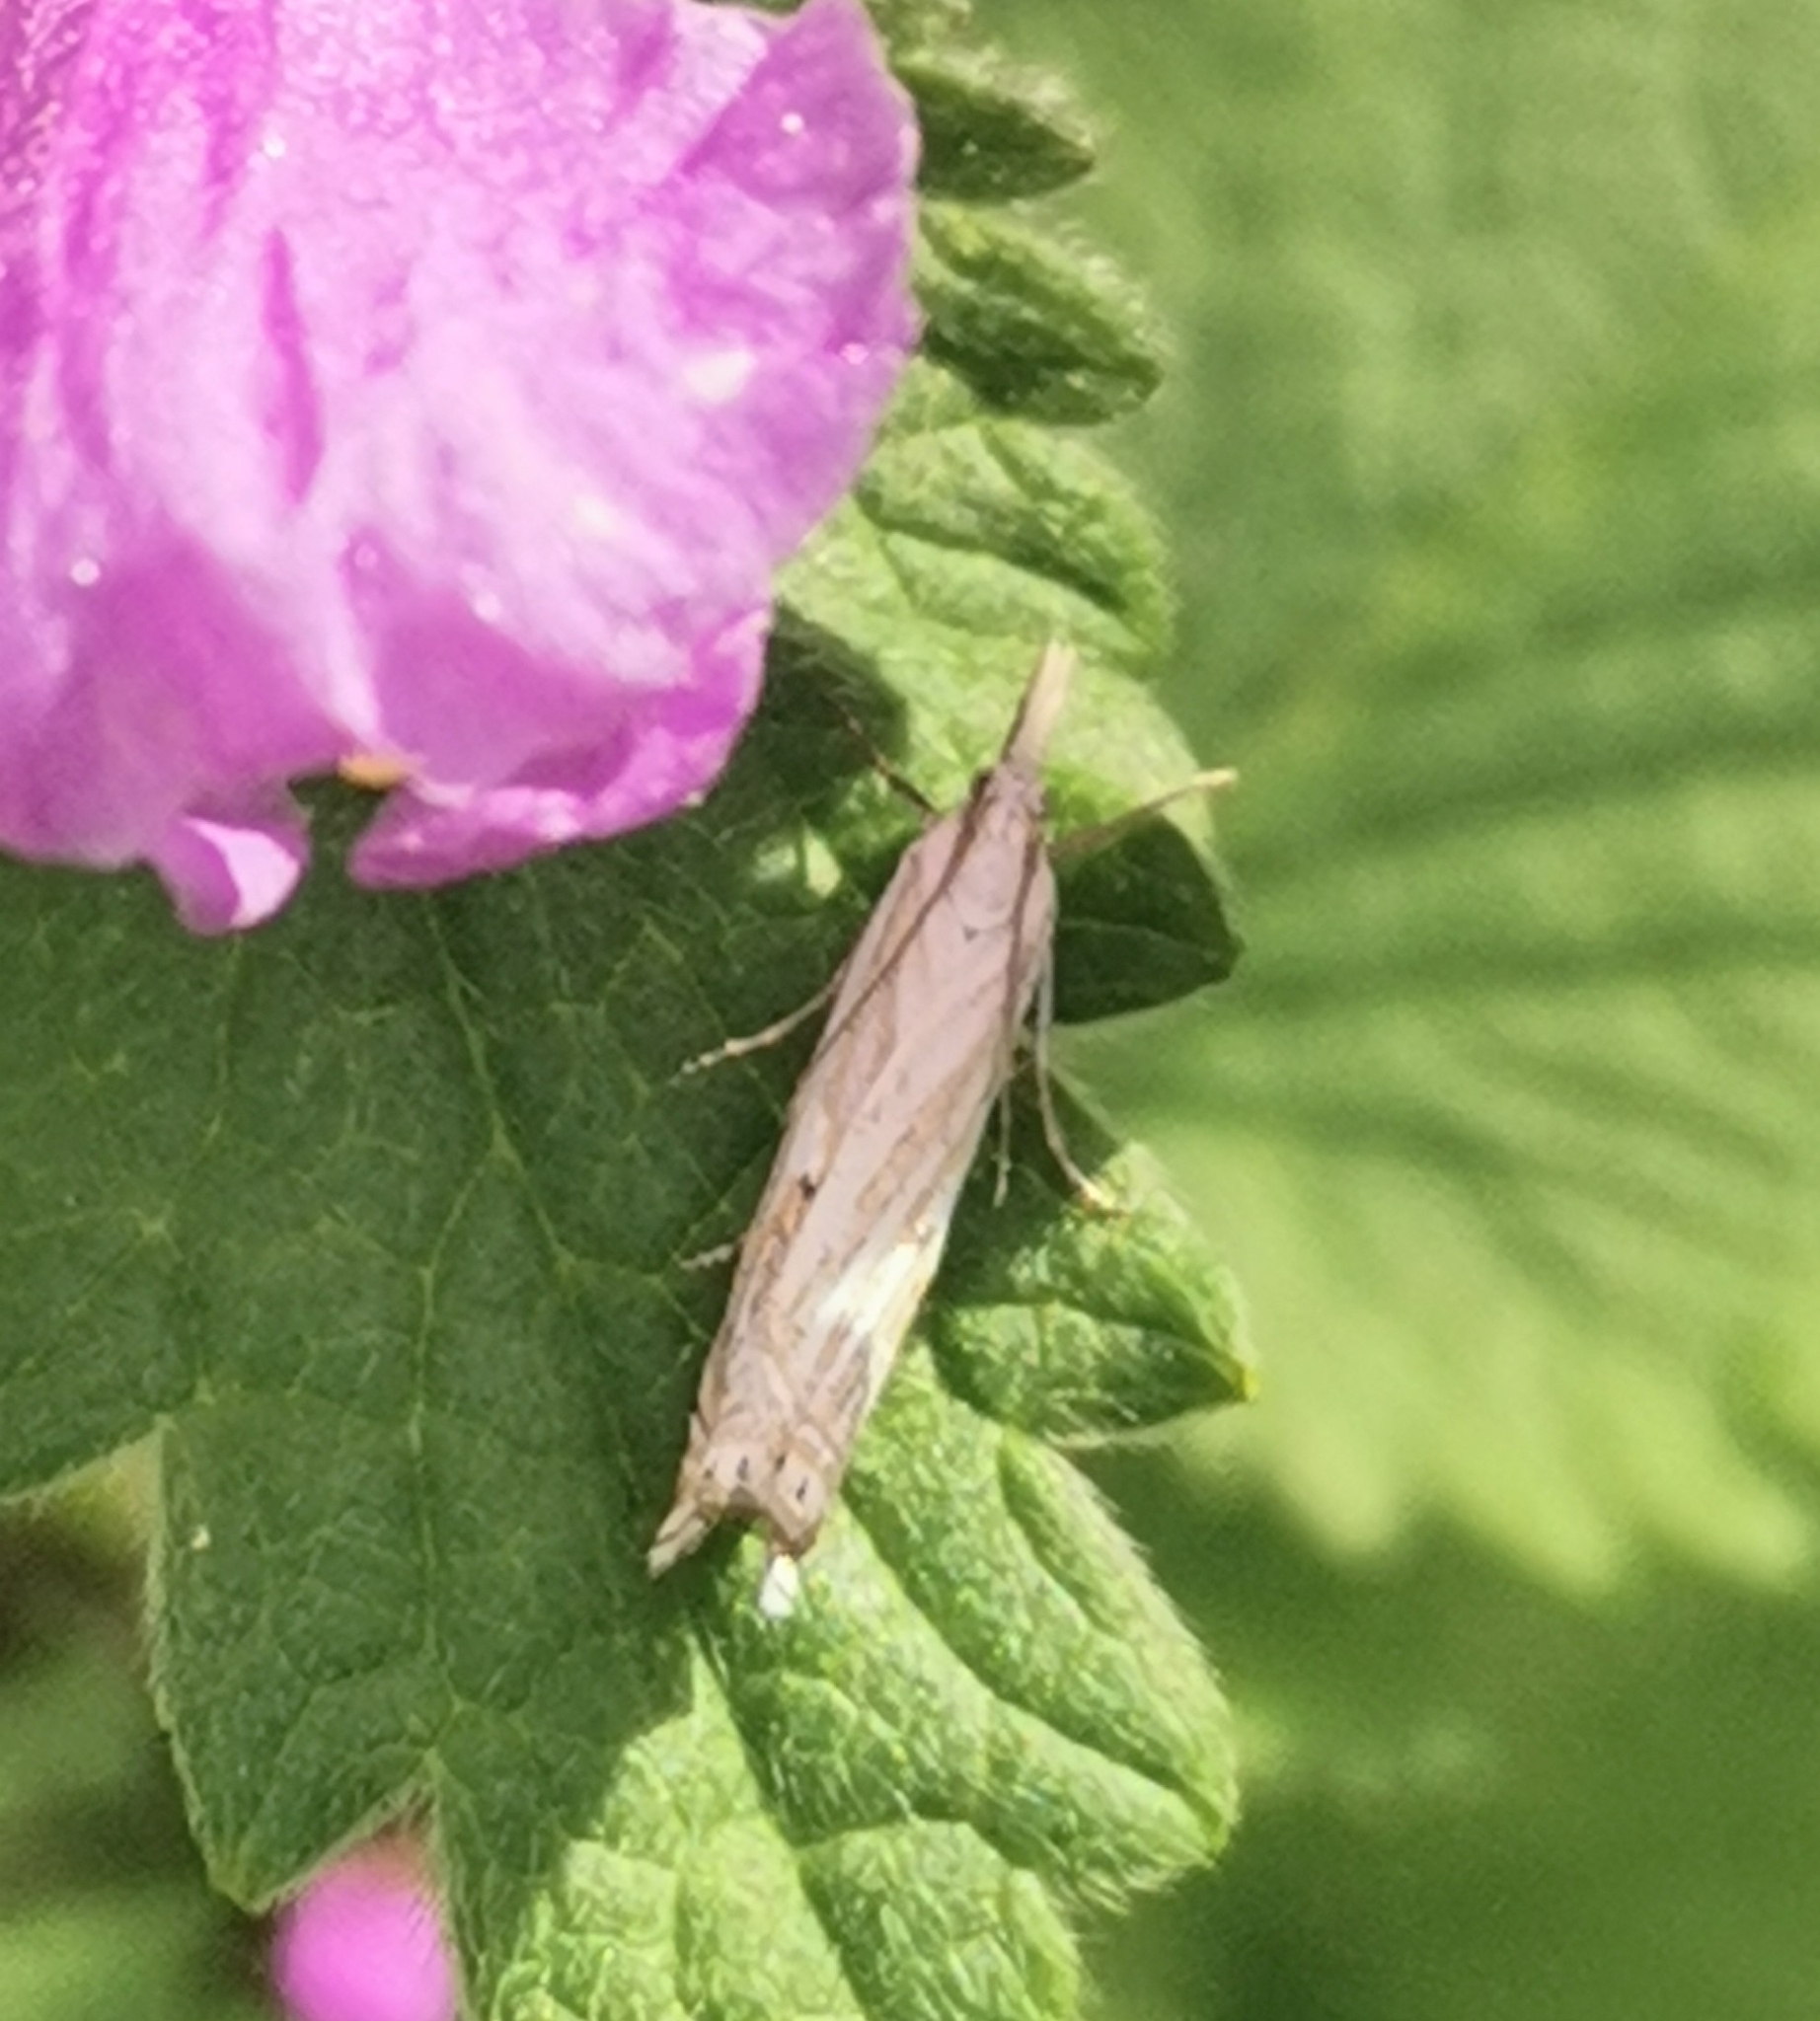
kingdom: Animalia
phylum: Arthropoda
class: Insecta
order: Lepidoptera
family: Crambidae
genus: Crambus
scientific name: Crambus nemorella
